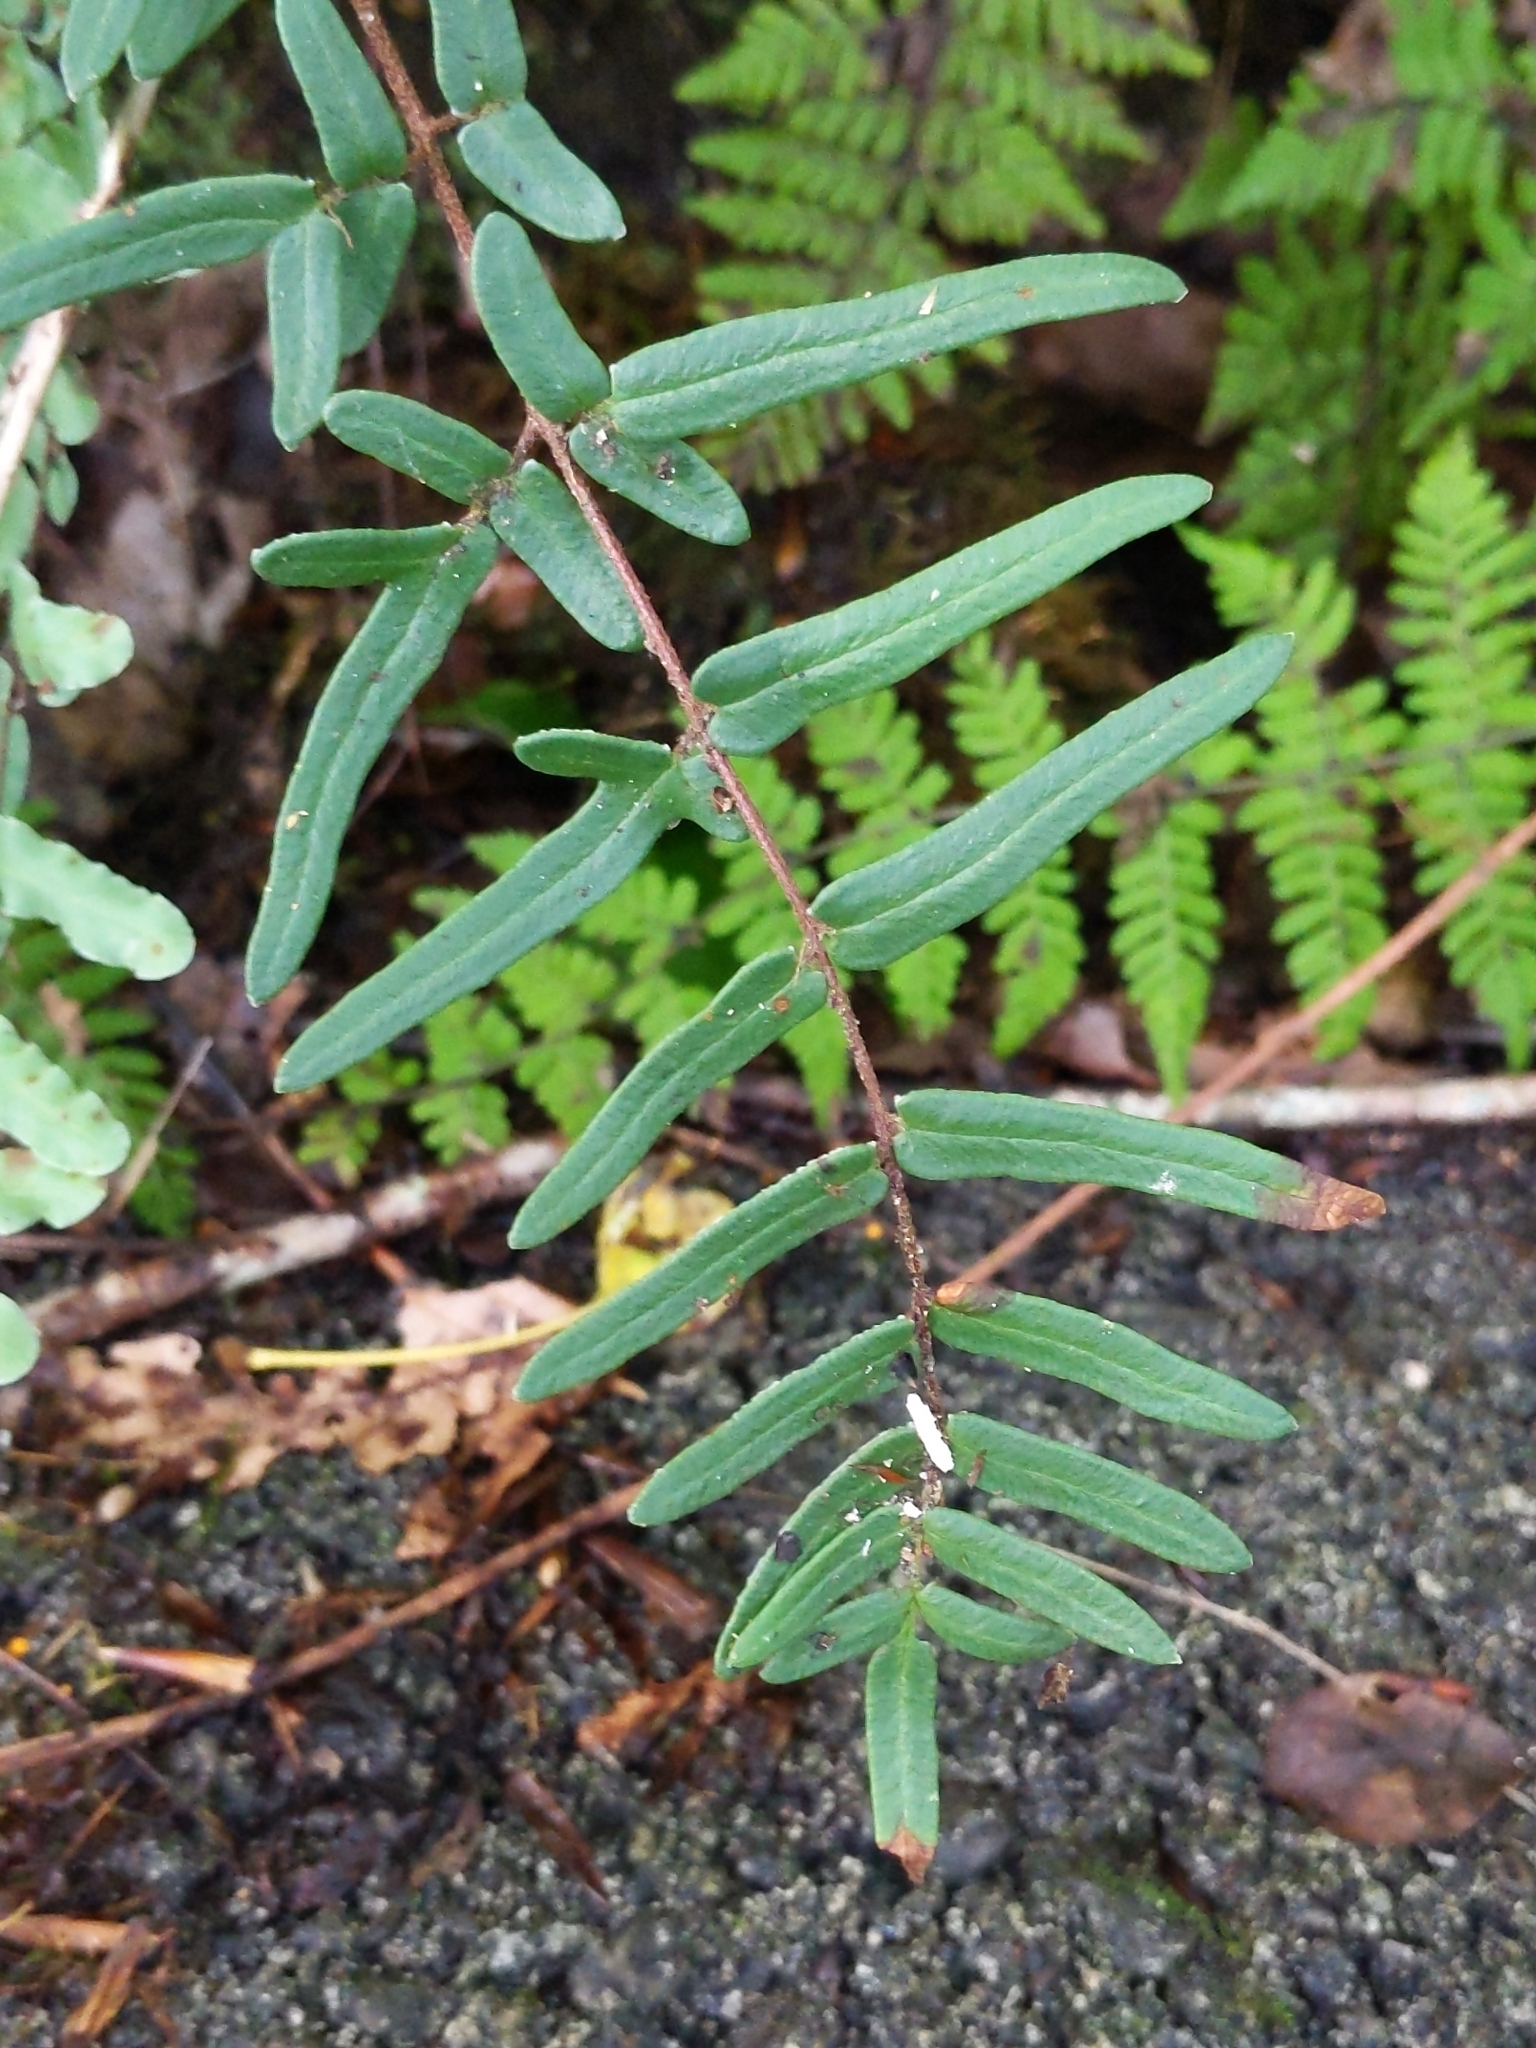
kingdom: Plantae
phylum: Tracheophyta
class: Polypodiopsida
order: Polypodiales
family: Pteridaceae
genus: Pellaea
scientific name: Pellaea atropurpurea
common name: Hairy cliffbrake
